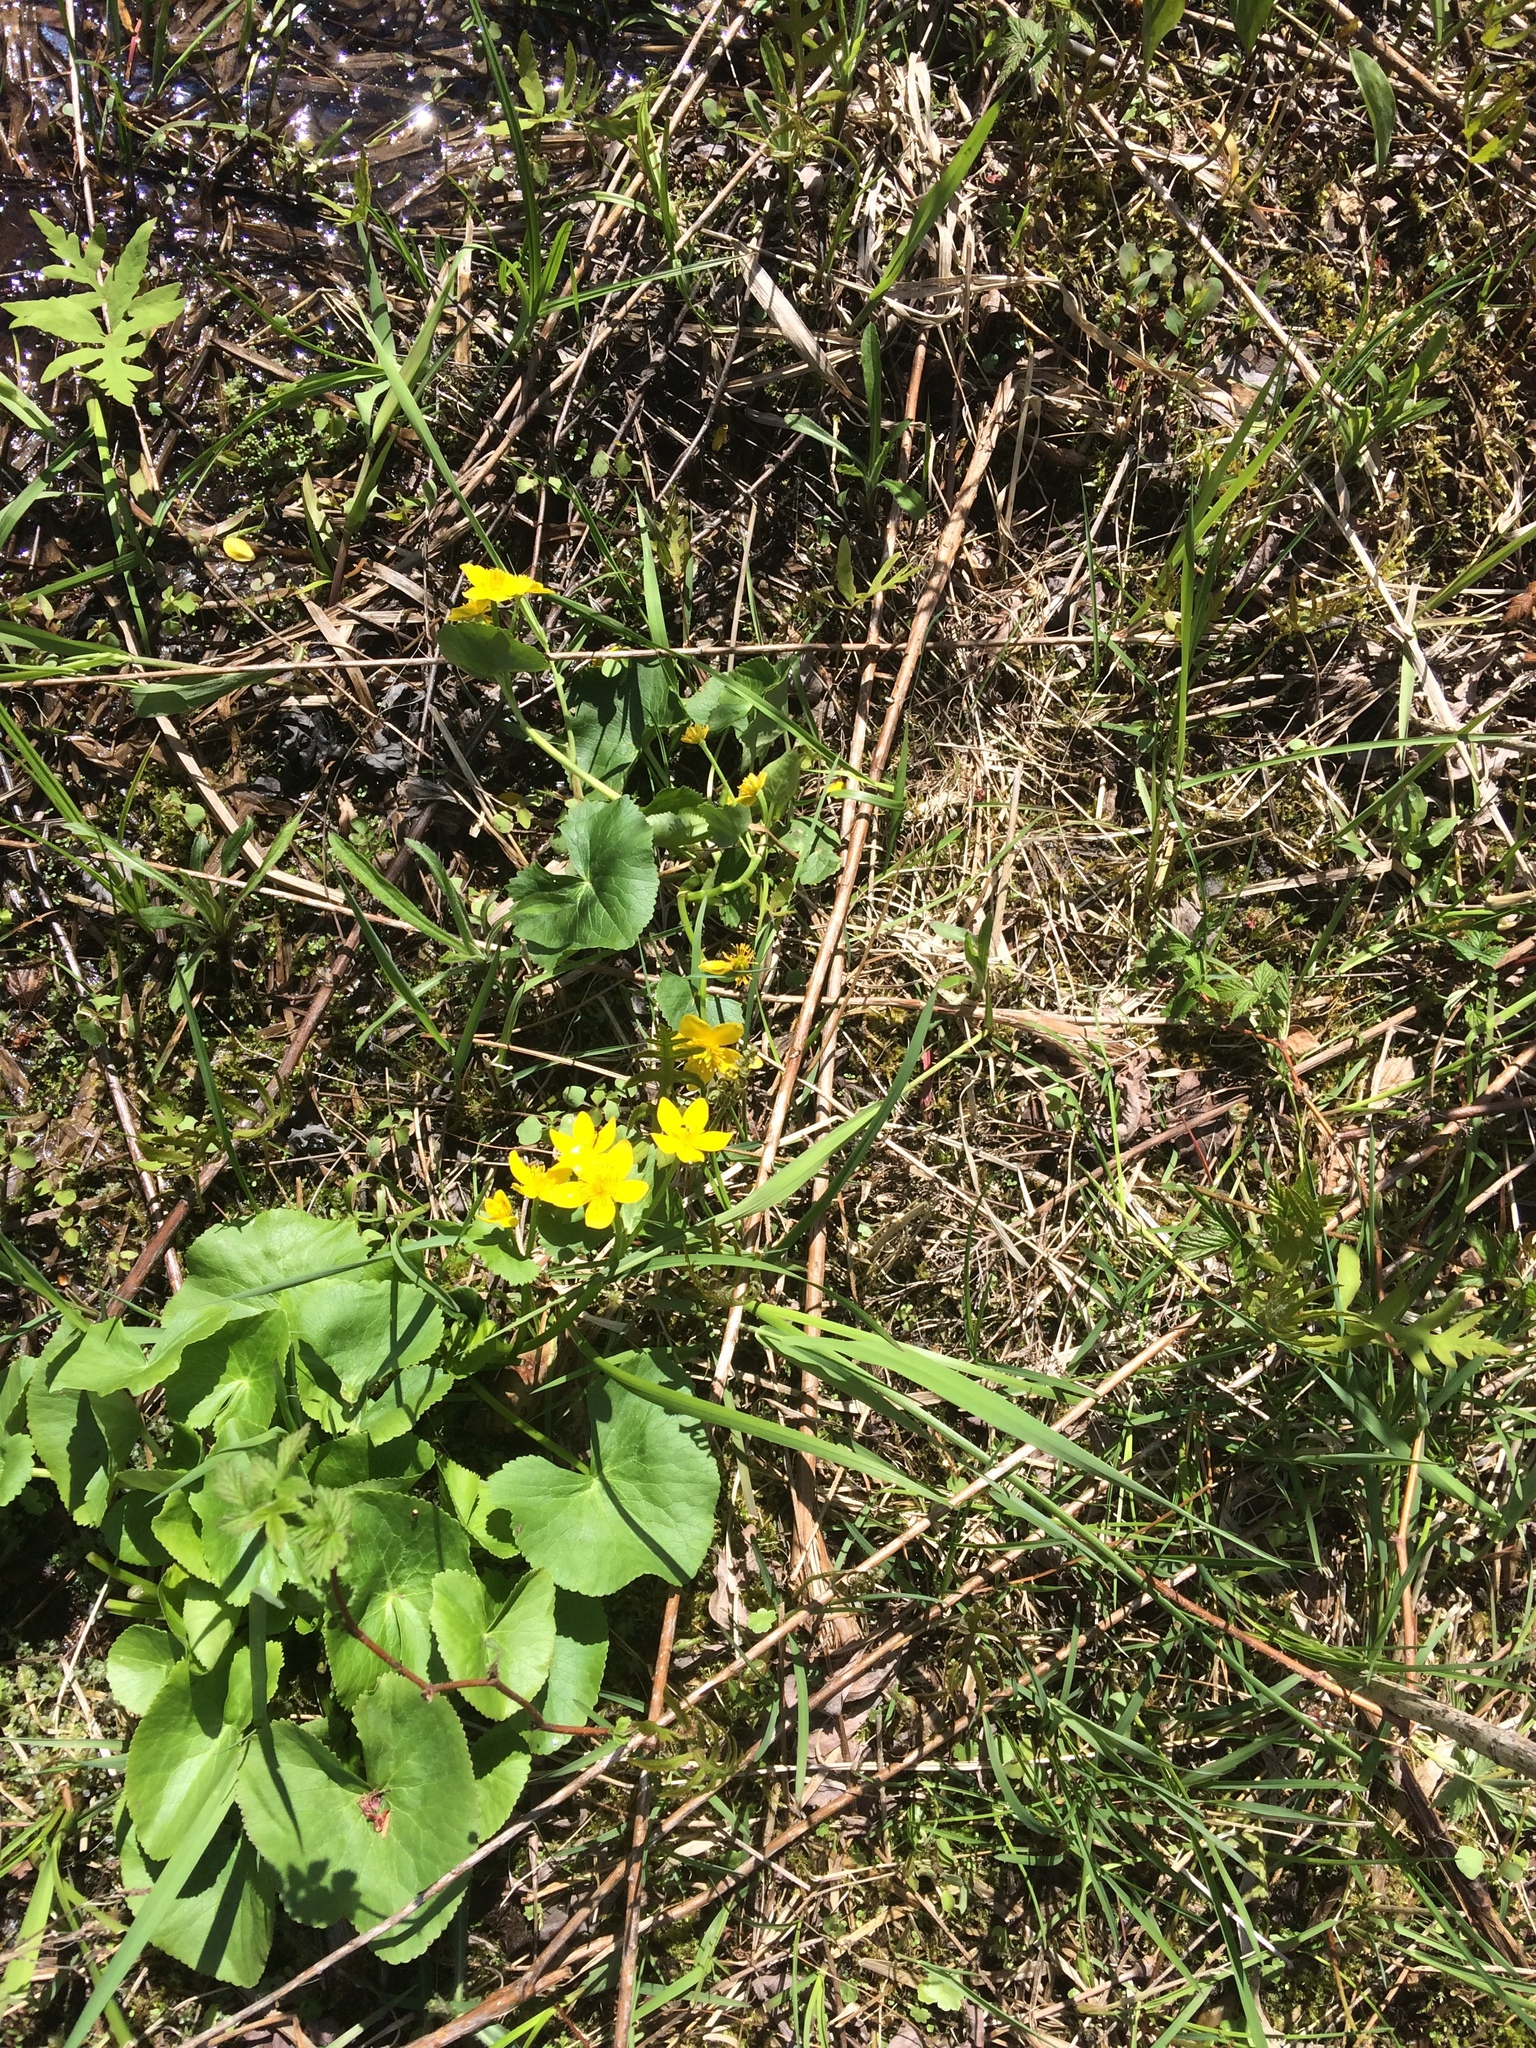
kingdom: Plantae
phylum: Tracheophyta
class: Magnoliopsida
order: Ranunculales
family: Ranunculaceae
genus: Caltha
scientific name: Caltha palustris
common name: Marsh marigold
